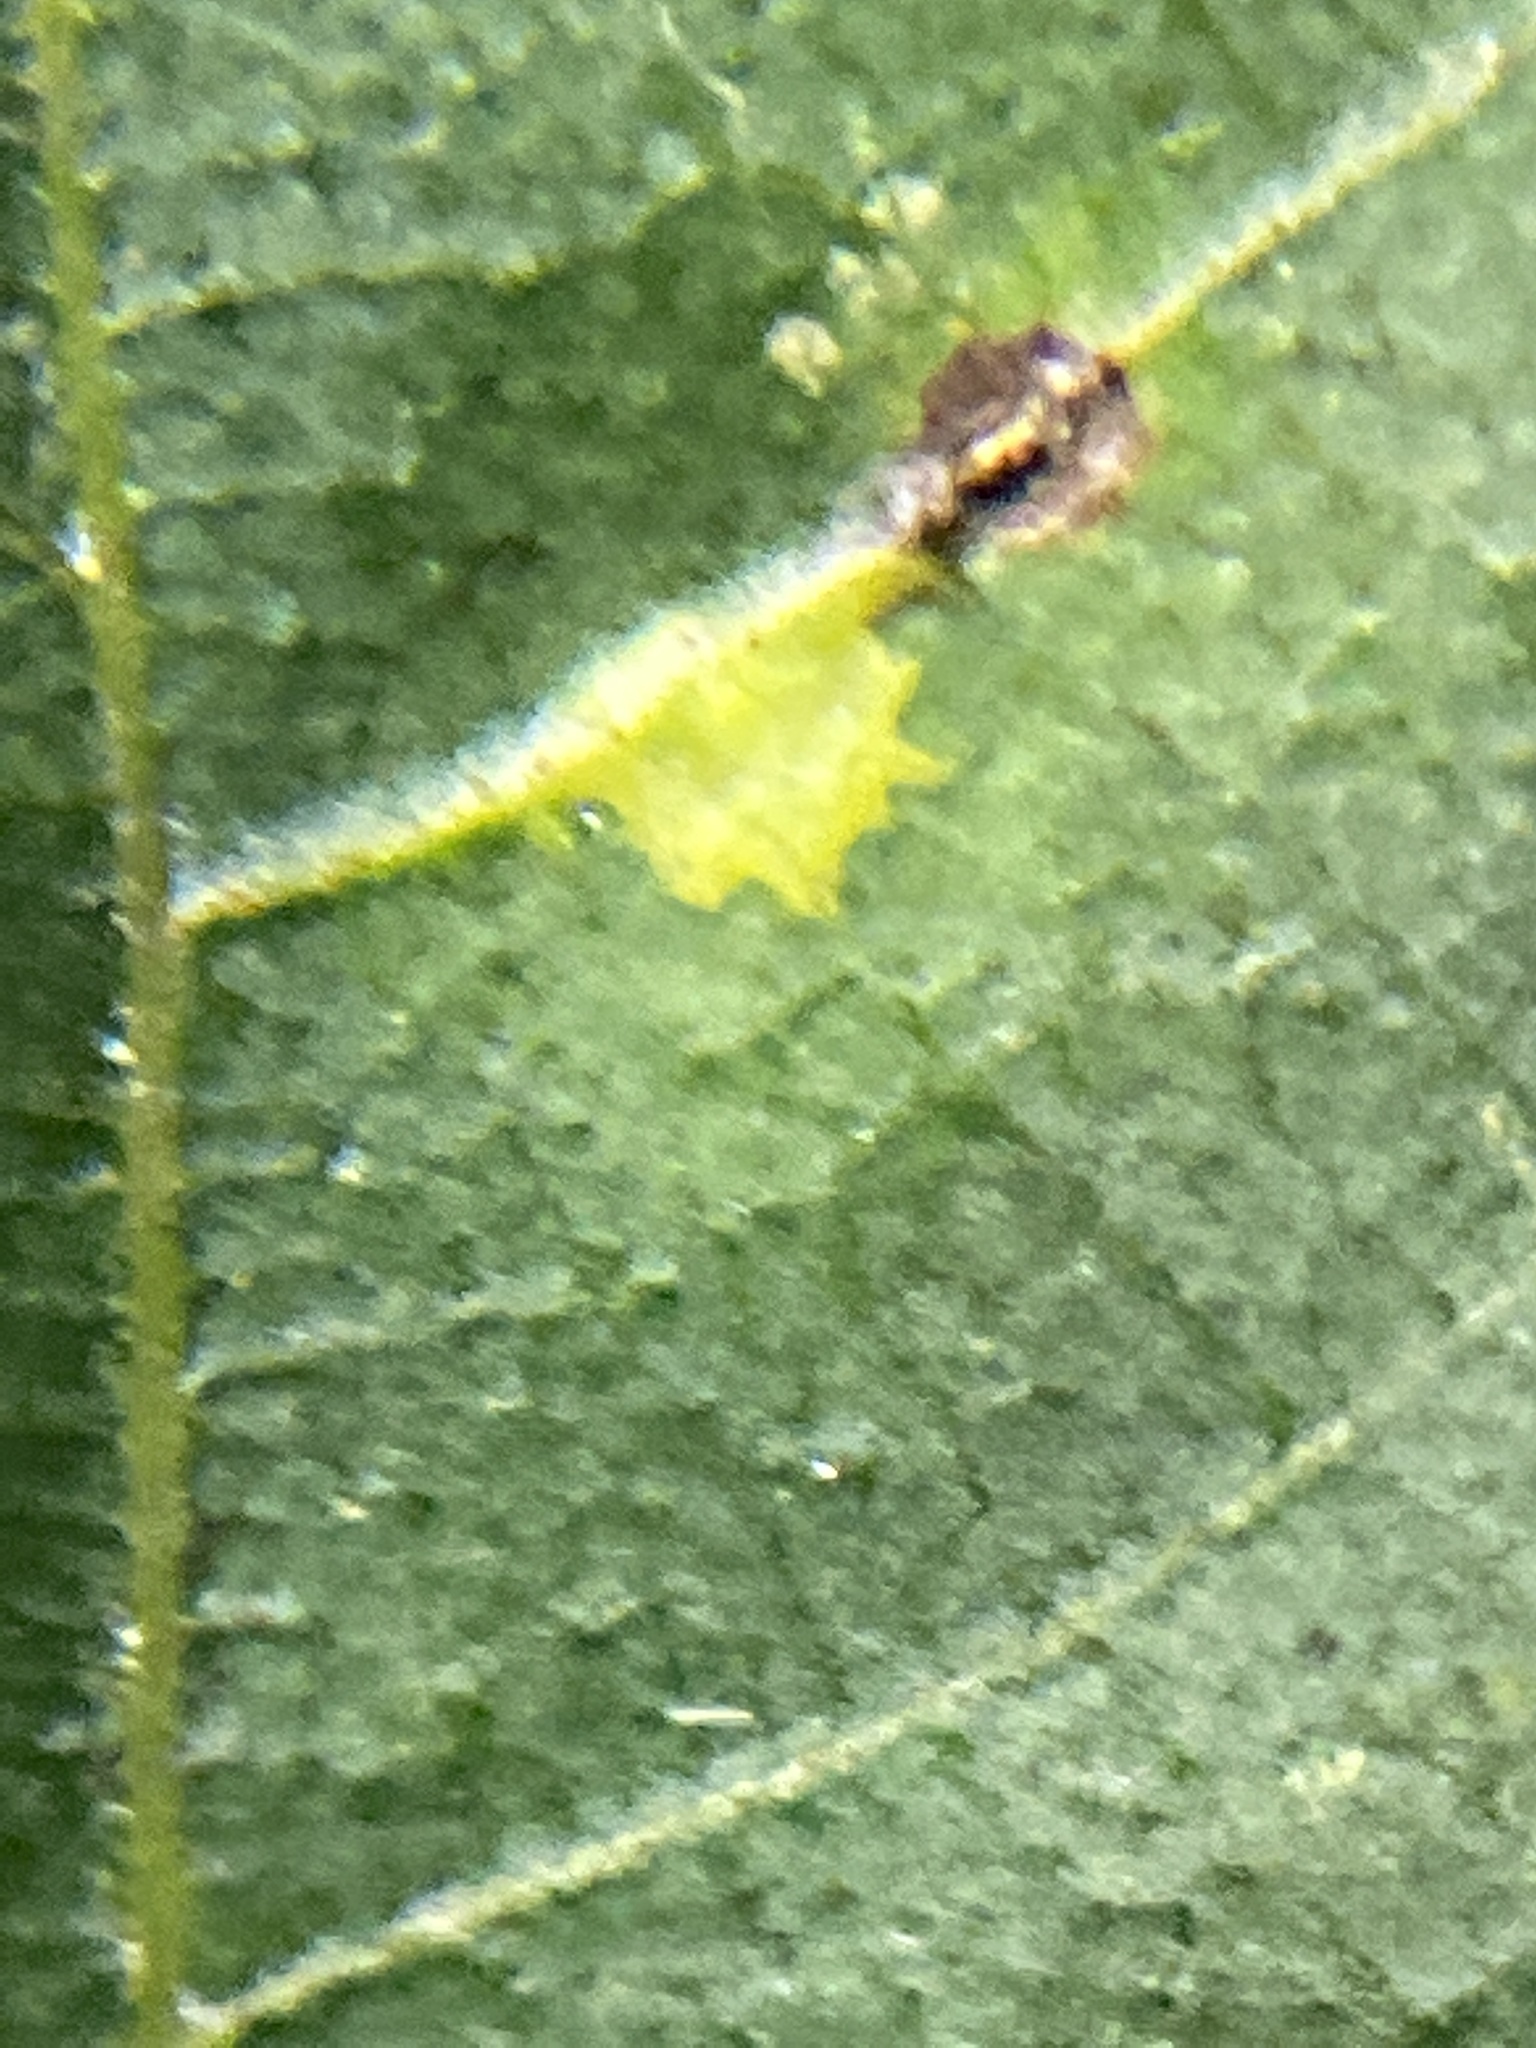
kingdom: Animalia
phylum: Arthropoda
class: Insecta
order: Diptera
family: Cecidomyiidae
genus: Caryomyia
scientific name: Caryomyia caryaecola
